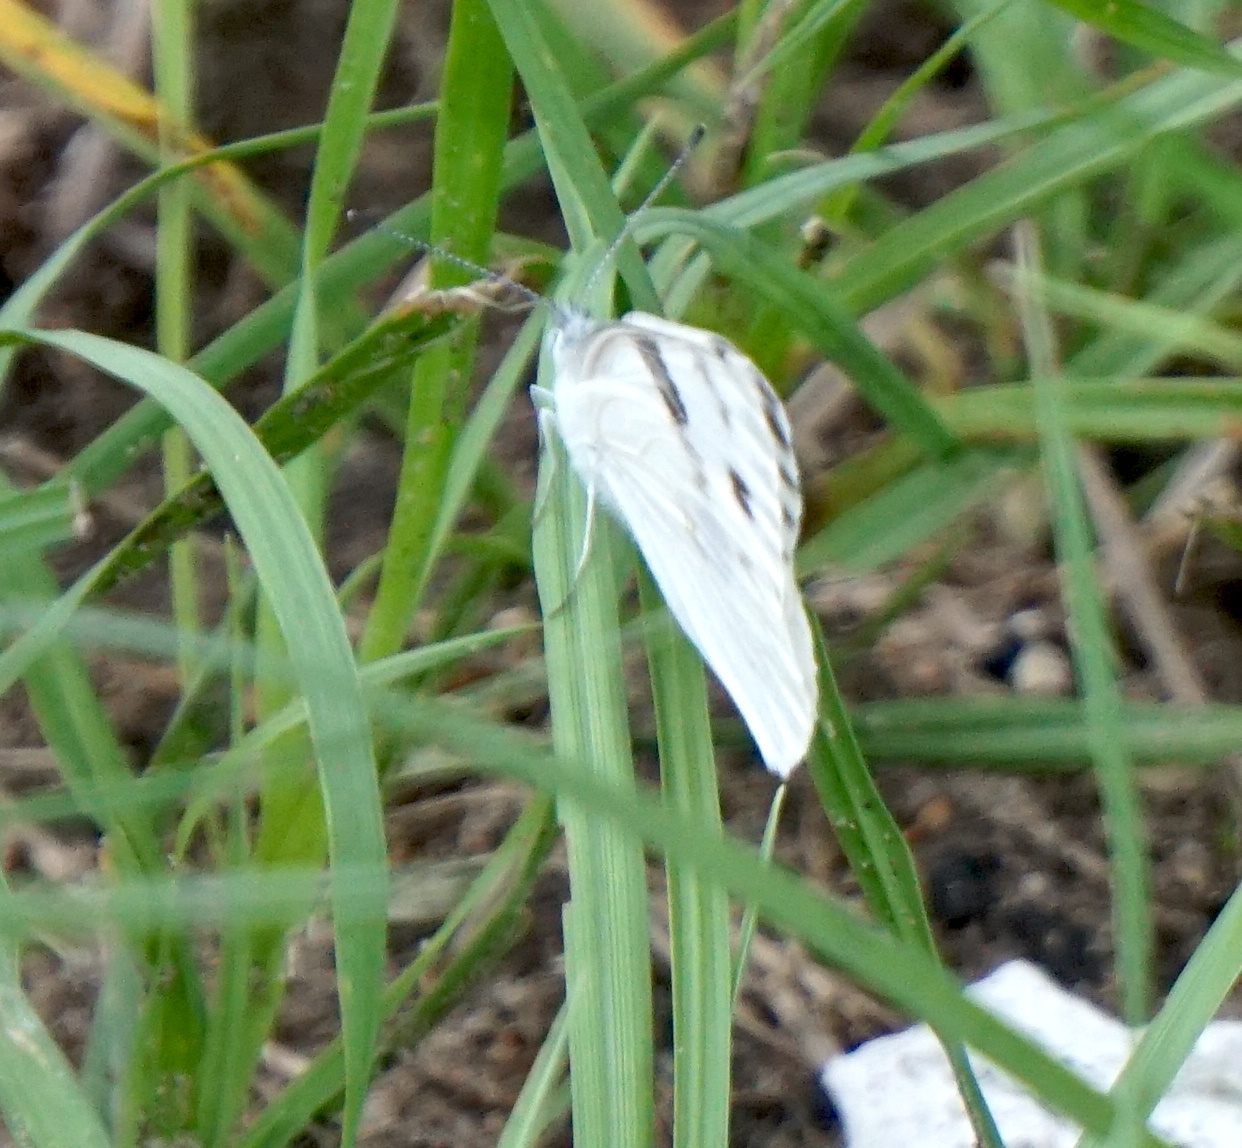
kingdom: Animalia
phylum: Arthropoda
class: Insecta
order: Lepidoptera
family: Pieridae
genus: Pontia
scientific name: Pontia protodice
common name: Checkered white
